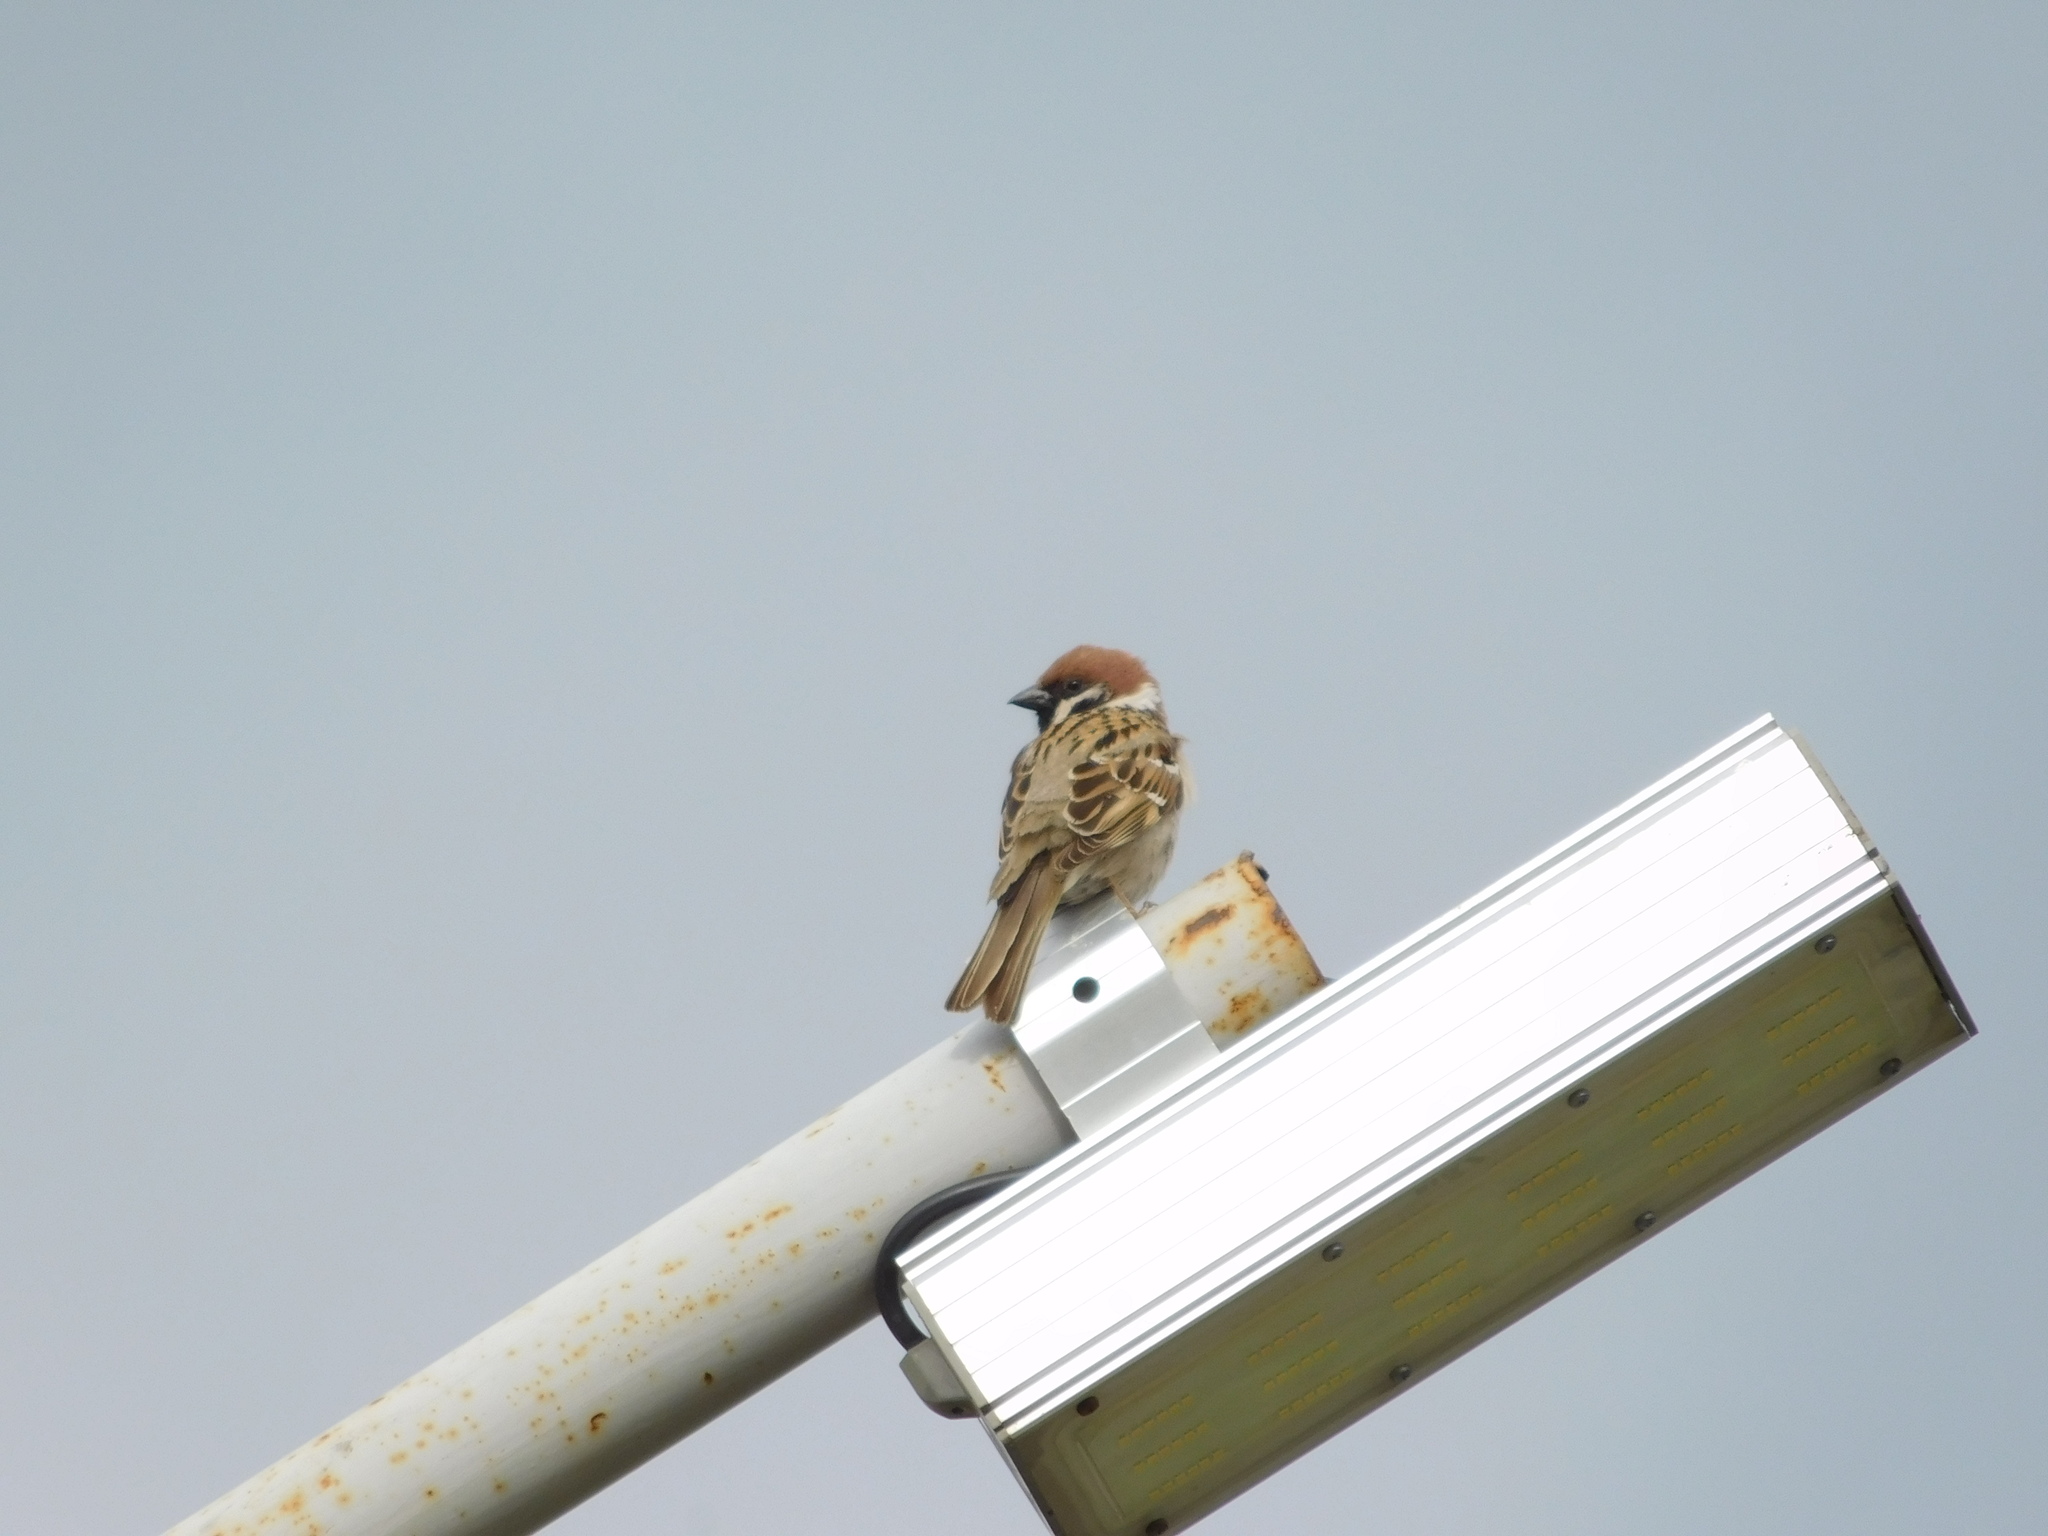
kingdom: Animalia
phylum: Chordata
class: Aves
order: Passeriformes
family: Passeridae
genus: Passer
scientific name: Passer montanus
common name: Eurasian tree sparrow
